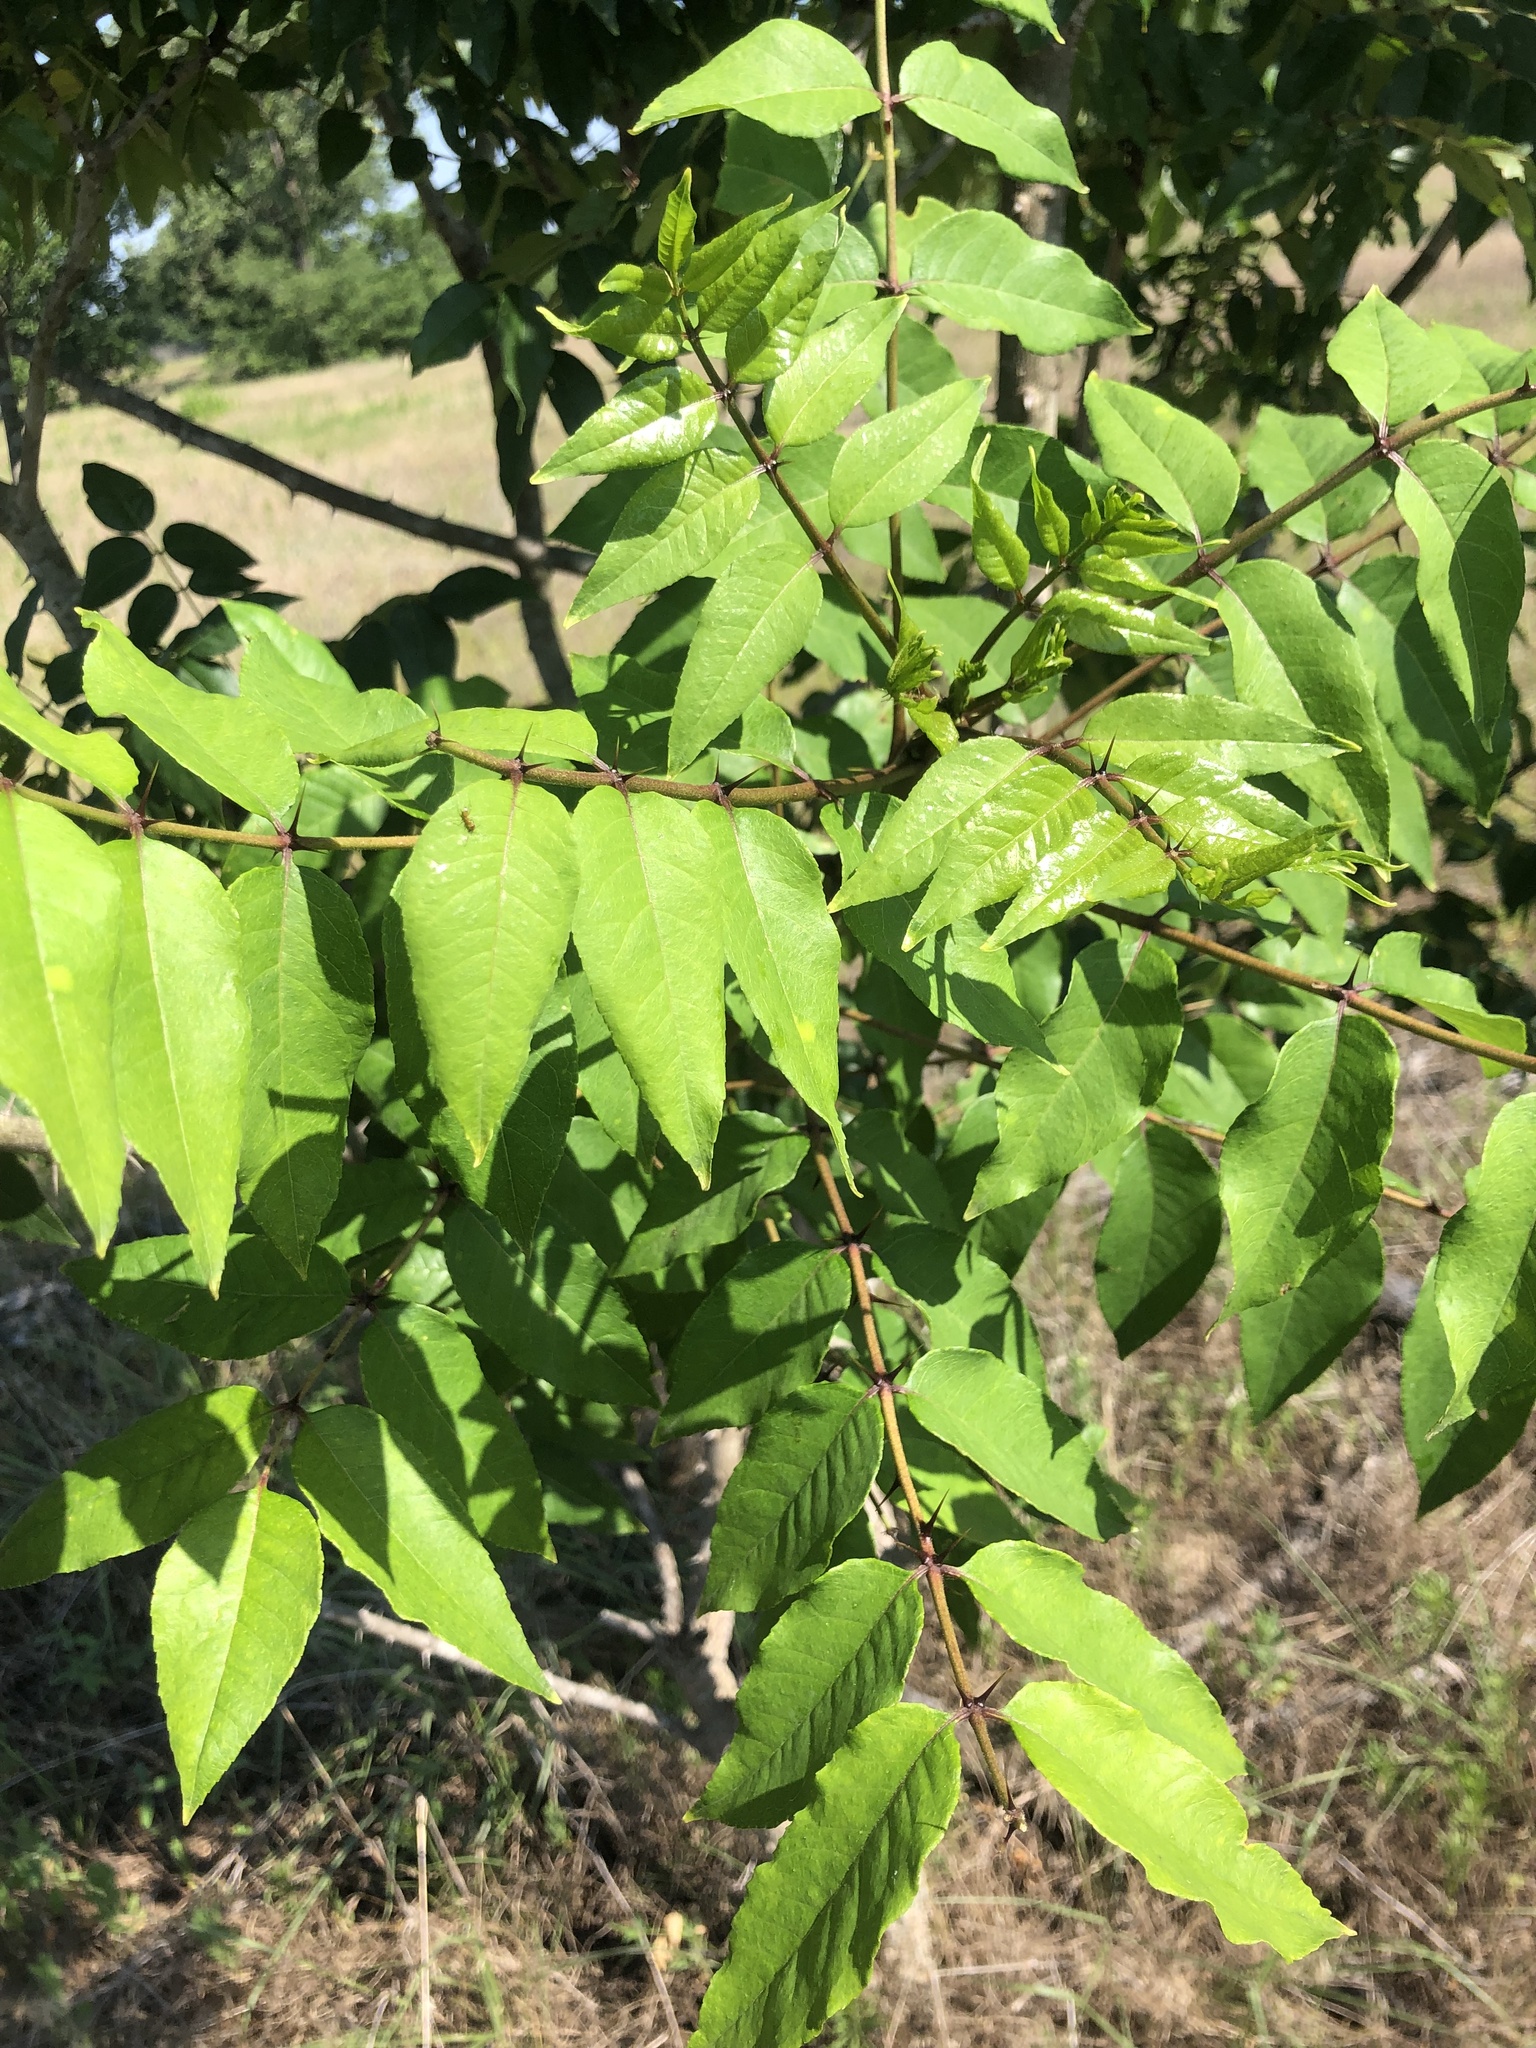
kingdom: Plantae
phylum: Tracheophyta
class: Magnoliopsida
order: Sapindales
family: Rutaceae
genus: Zanthoxylum
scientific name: Zanthoxylum clava-herculis
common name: Hercules'-club
